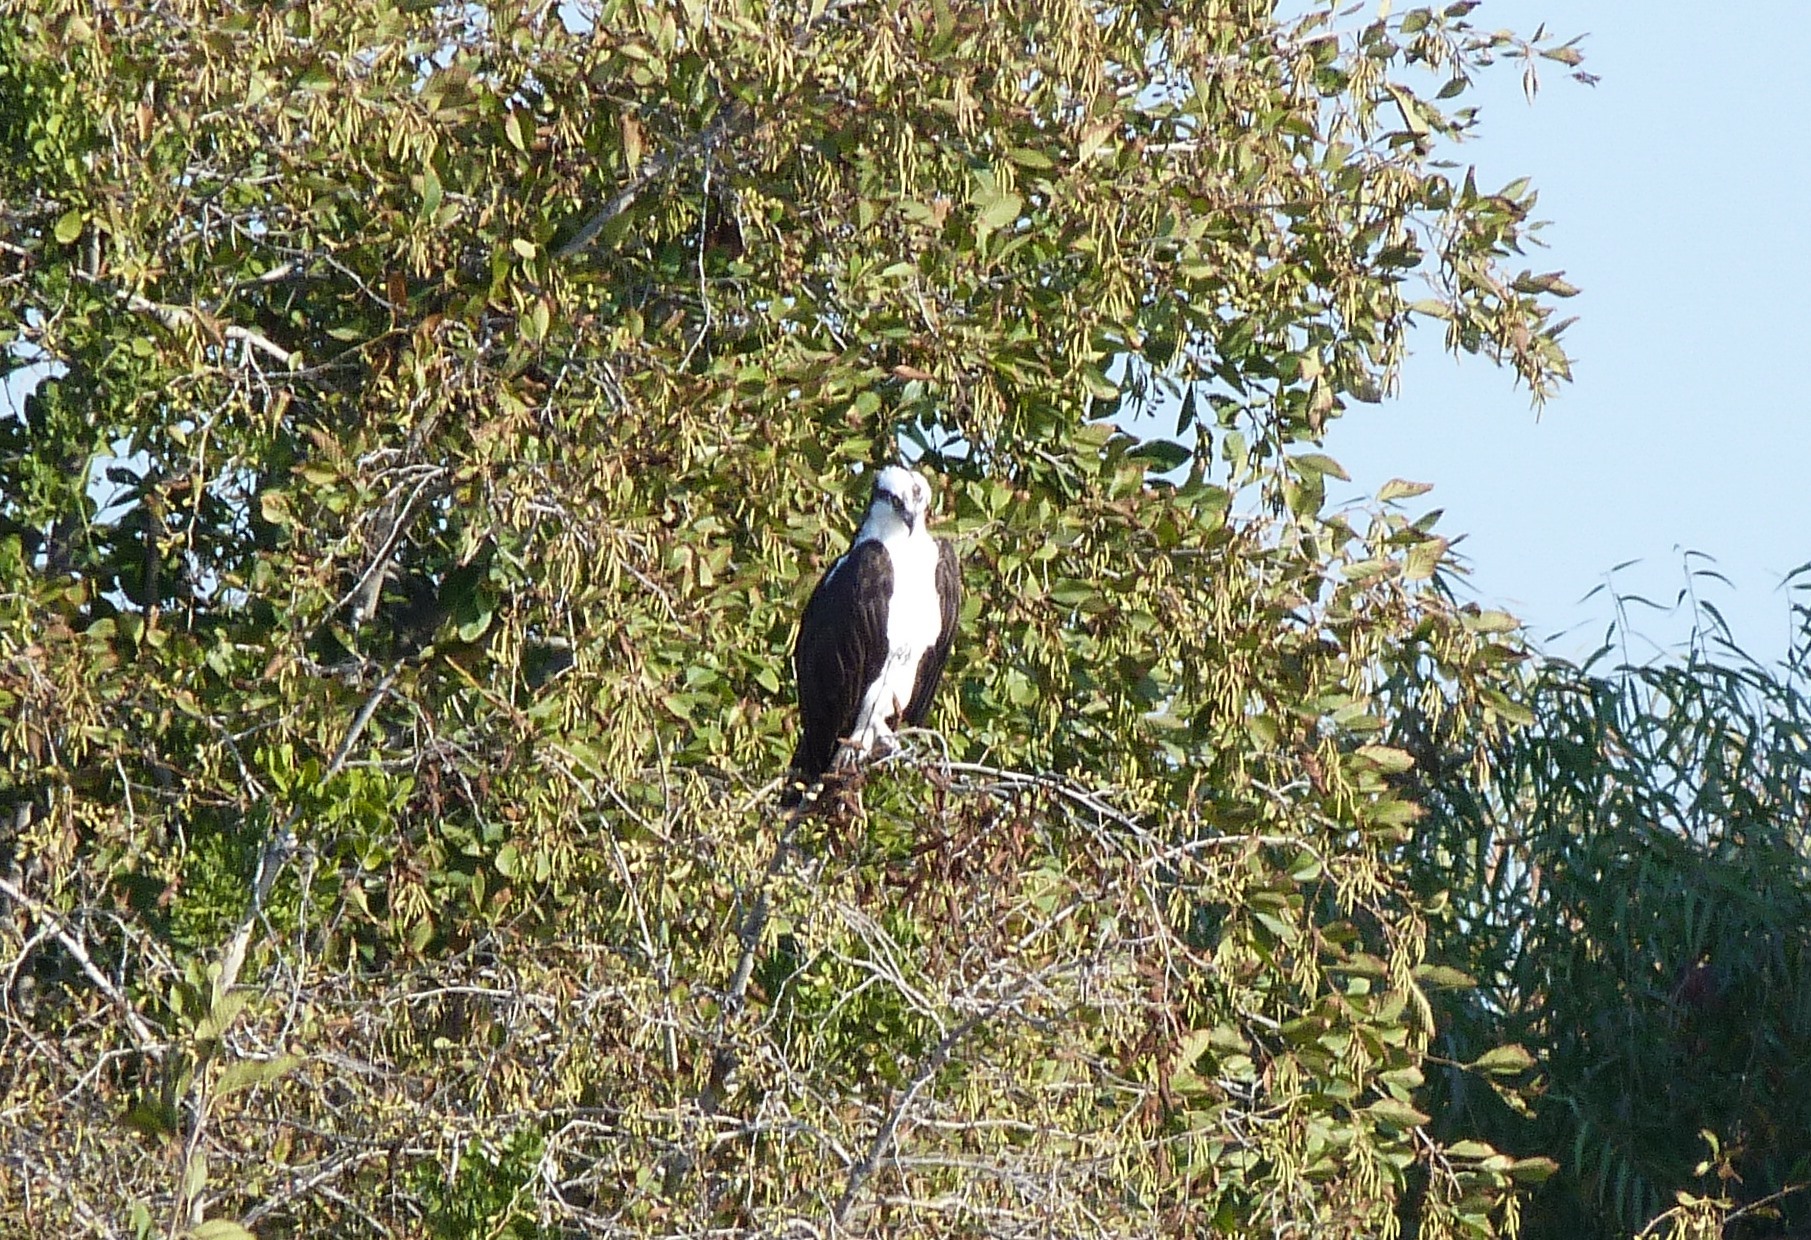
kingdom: Animalia
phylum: Chordata
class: Aves
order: Accipitriformes
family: Pandionidae
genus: Pandion
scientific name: Pandion haliaetus
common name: Osprey
